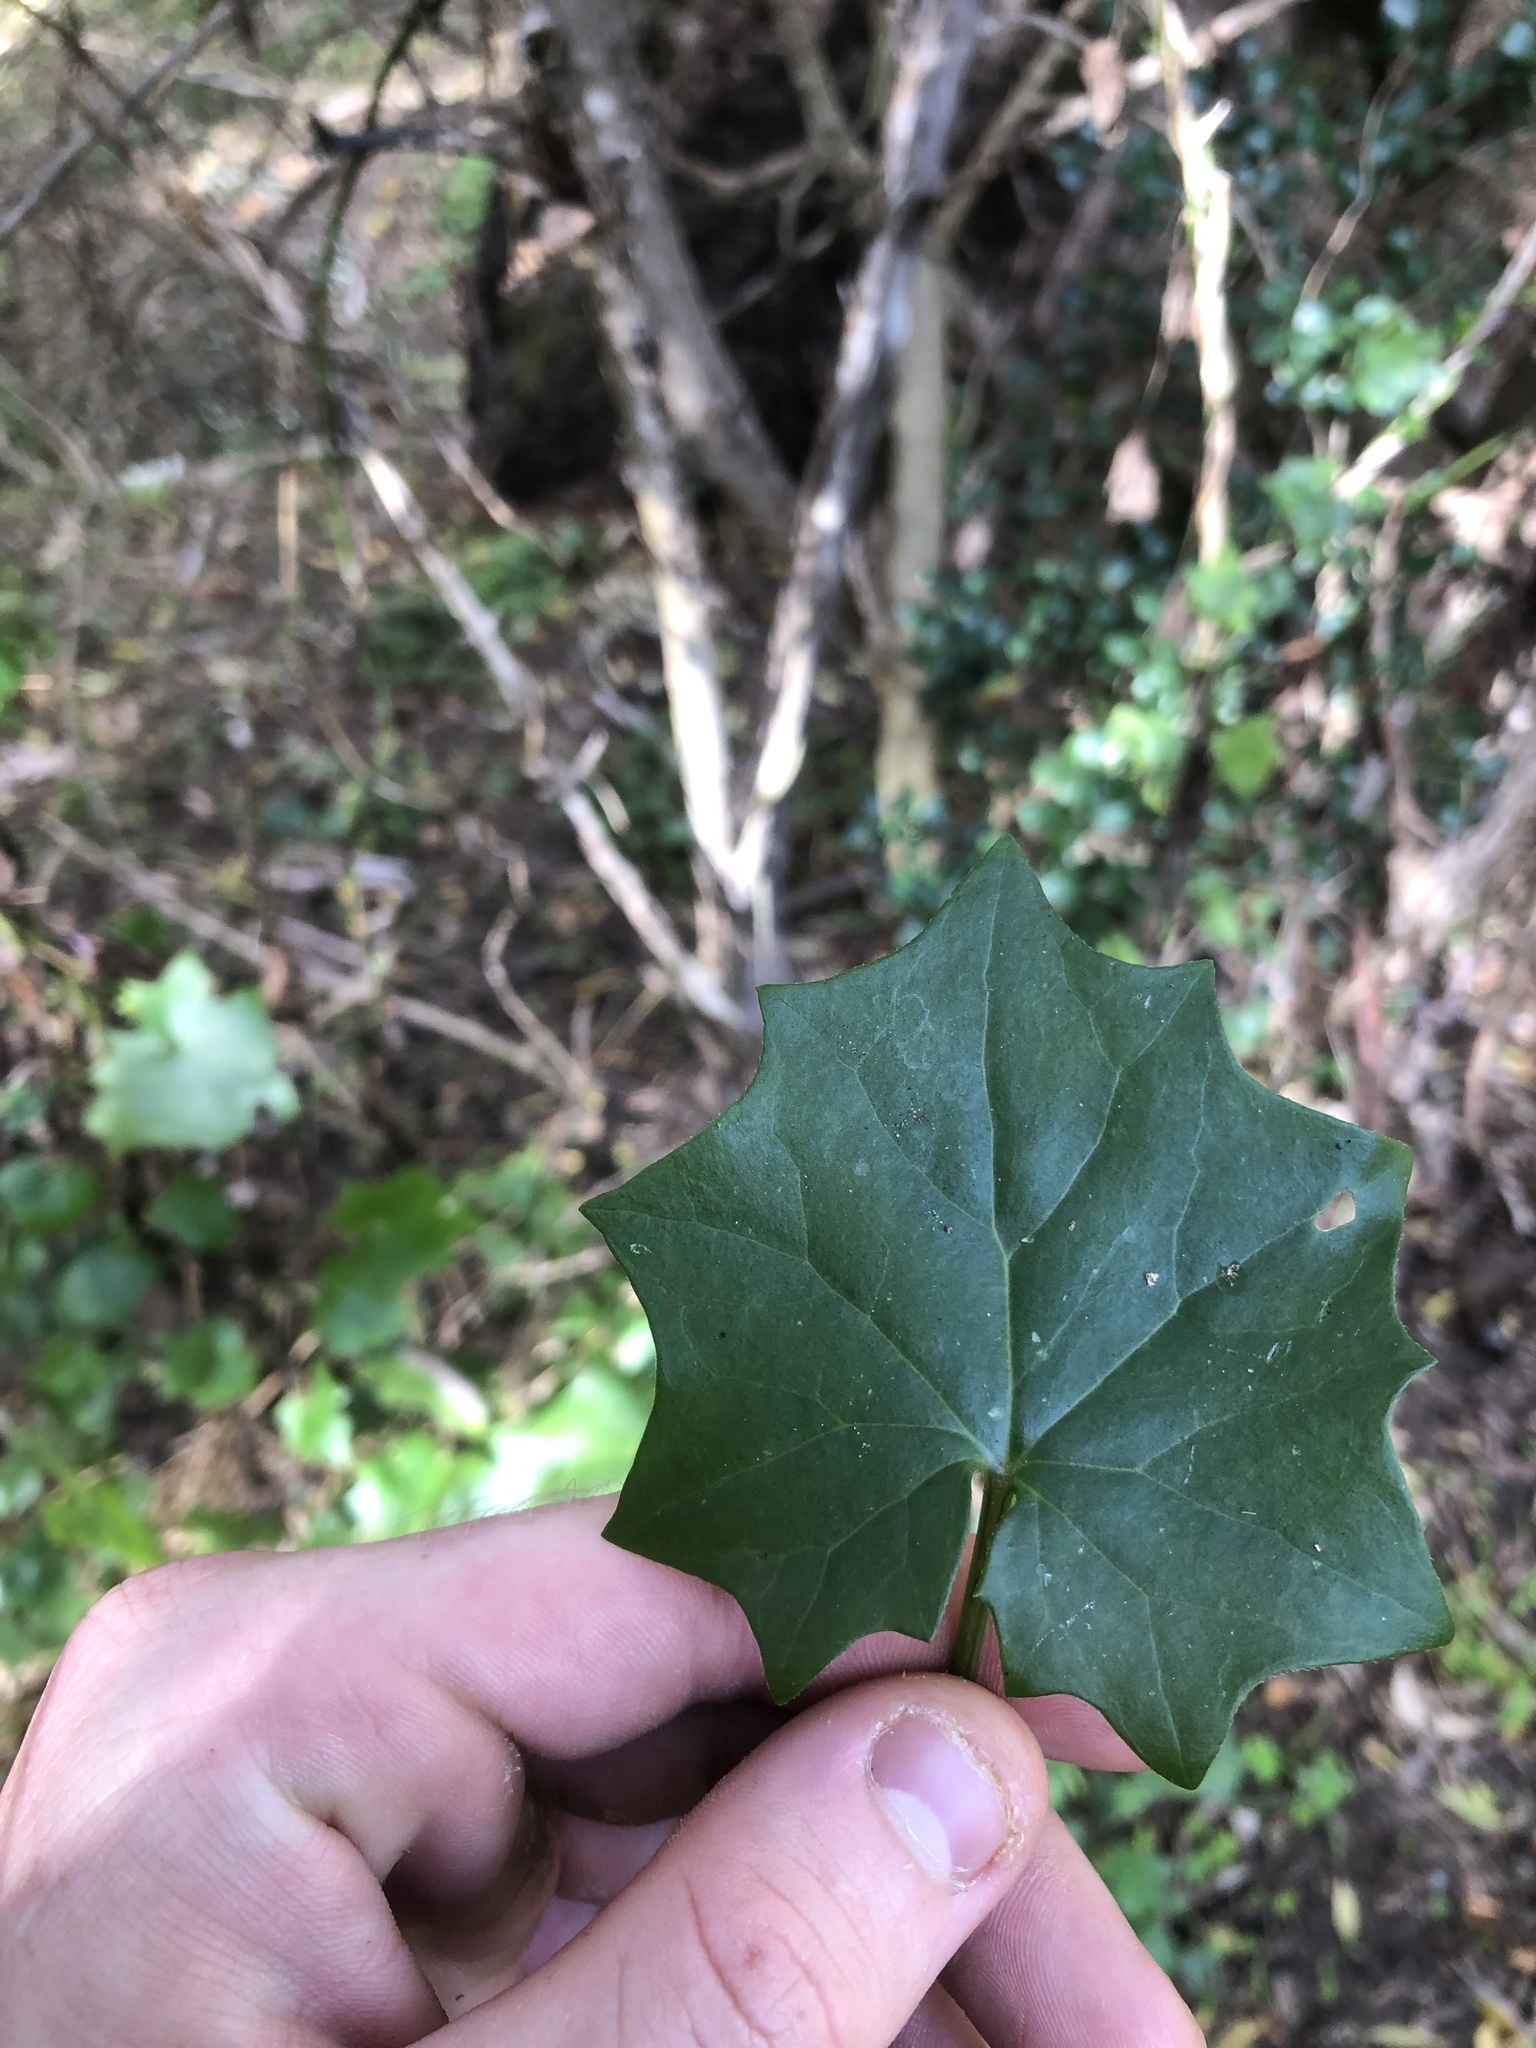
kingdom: Plantae
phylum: Tracheophyta
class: Magnoliopsida
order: Asterales
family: Asteraceae
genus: Delairea
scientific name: Delairea odorata
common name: Cape-ivy
